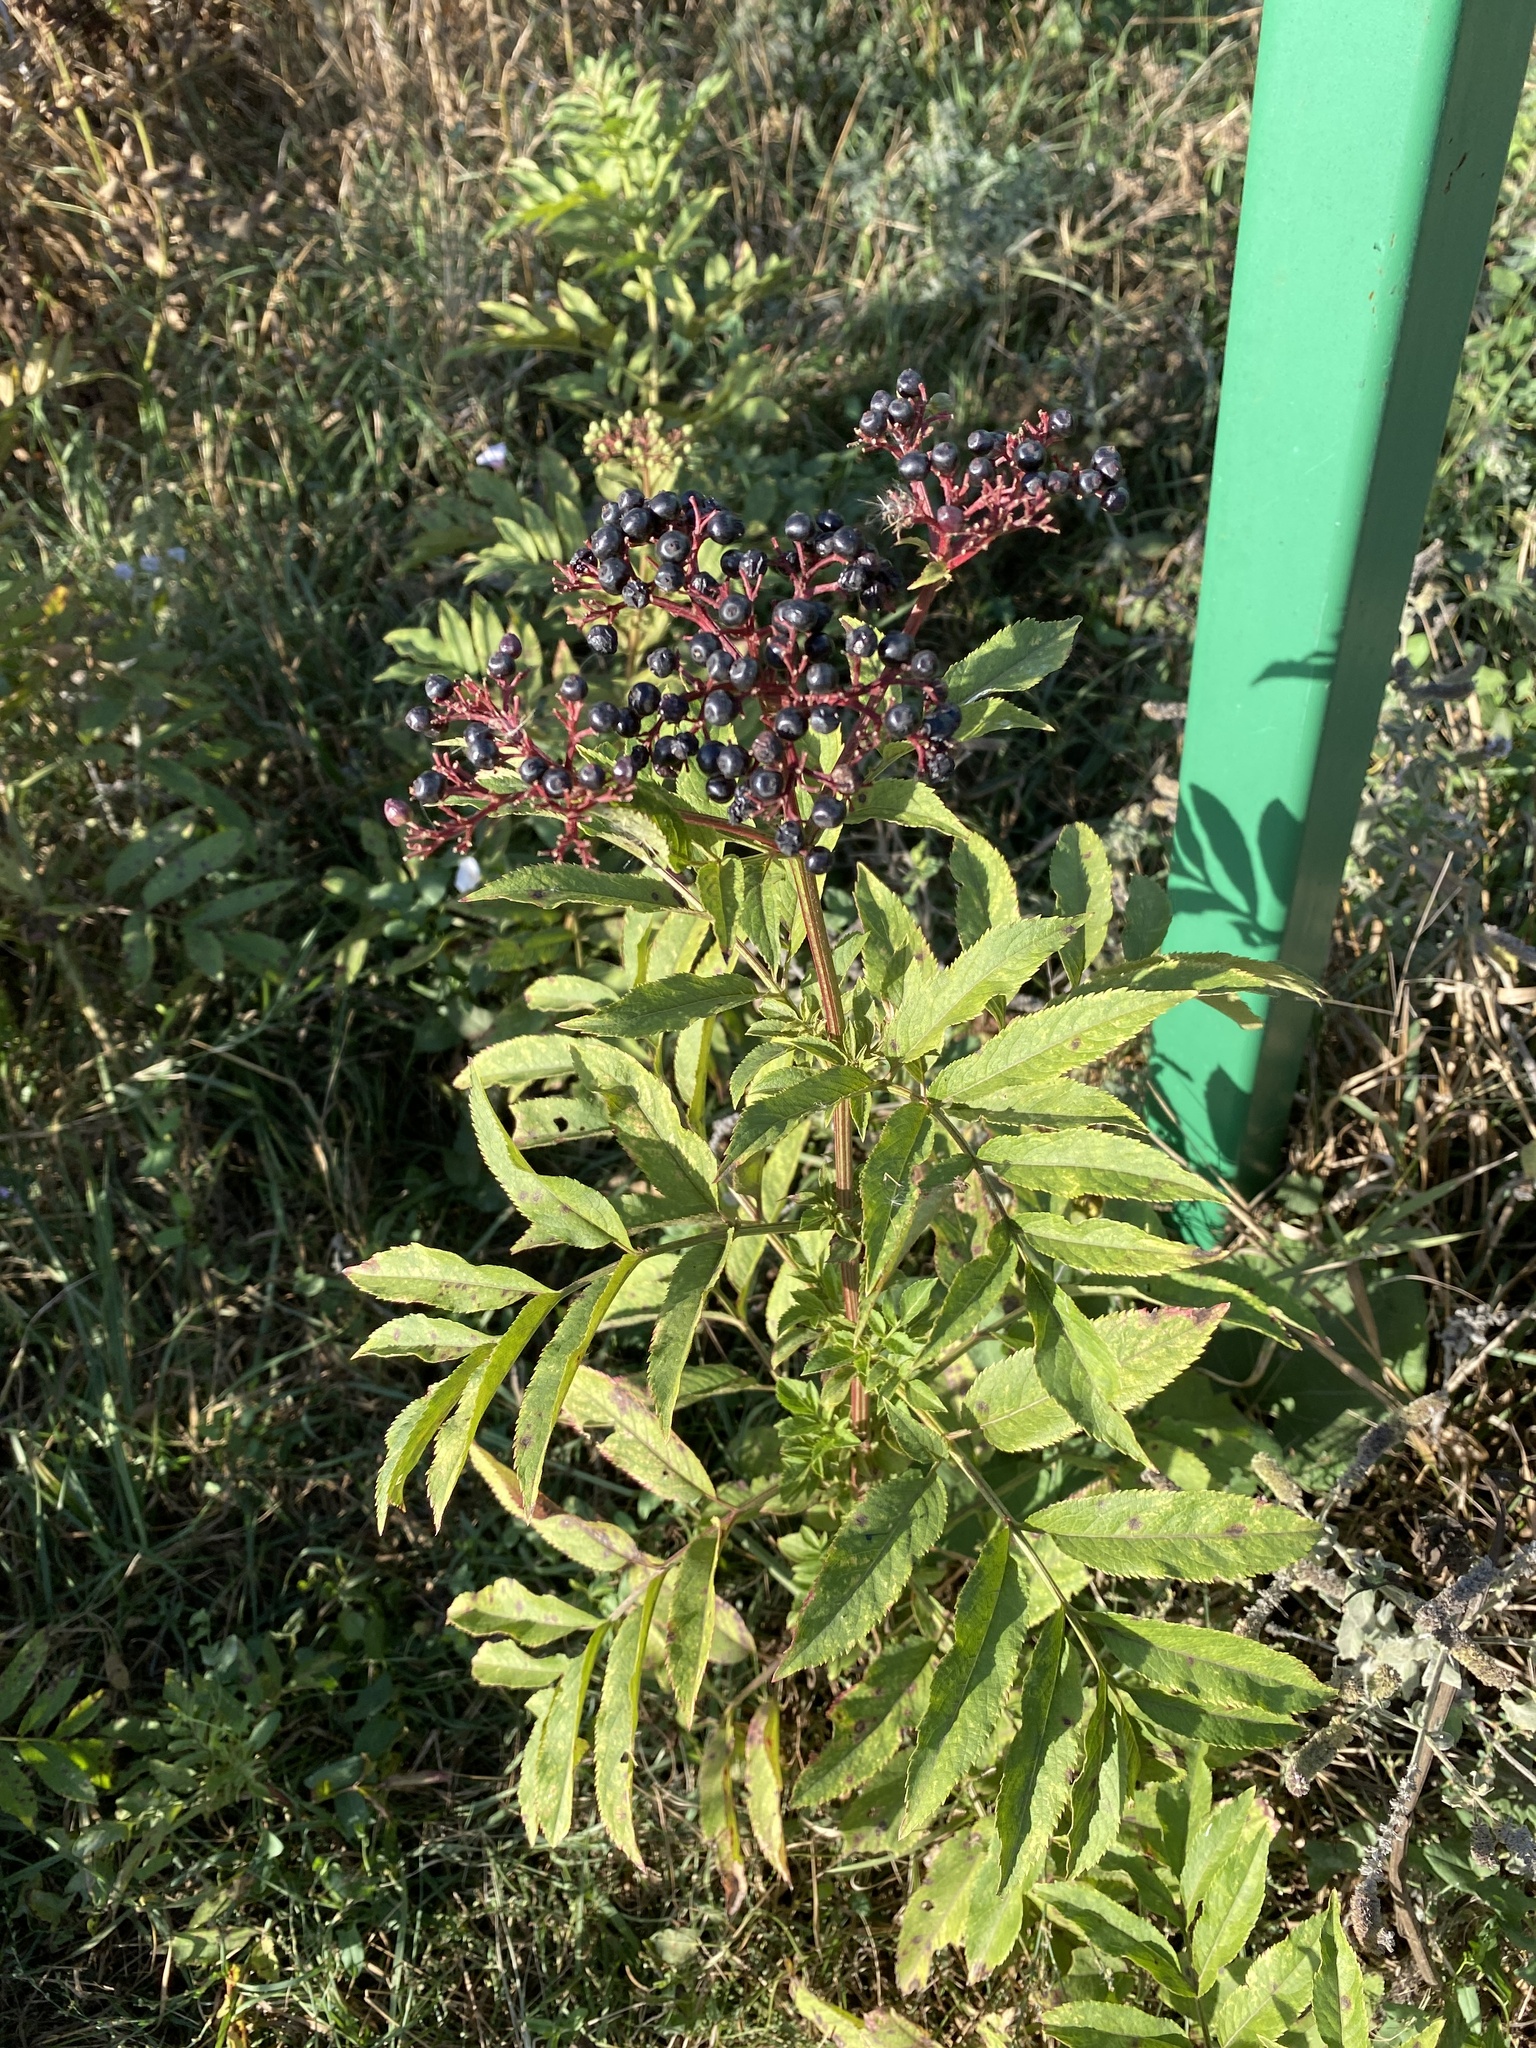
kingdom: Plantae
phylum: Tracheophyta
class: Magnoliopsida
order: Dipsacales
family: Viburnaceae
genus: Sambucus
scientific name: Sambucus ebulus
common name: Dwarf elder
